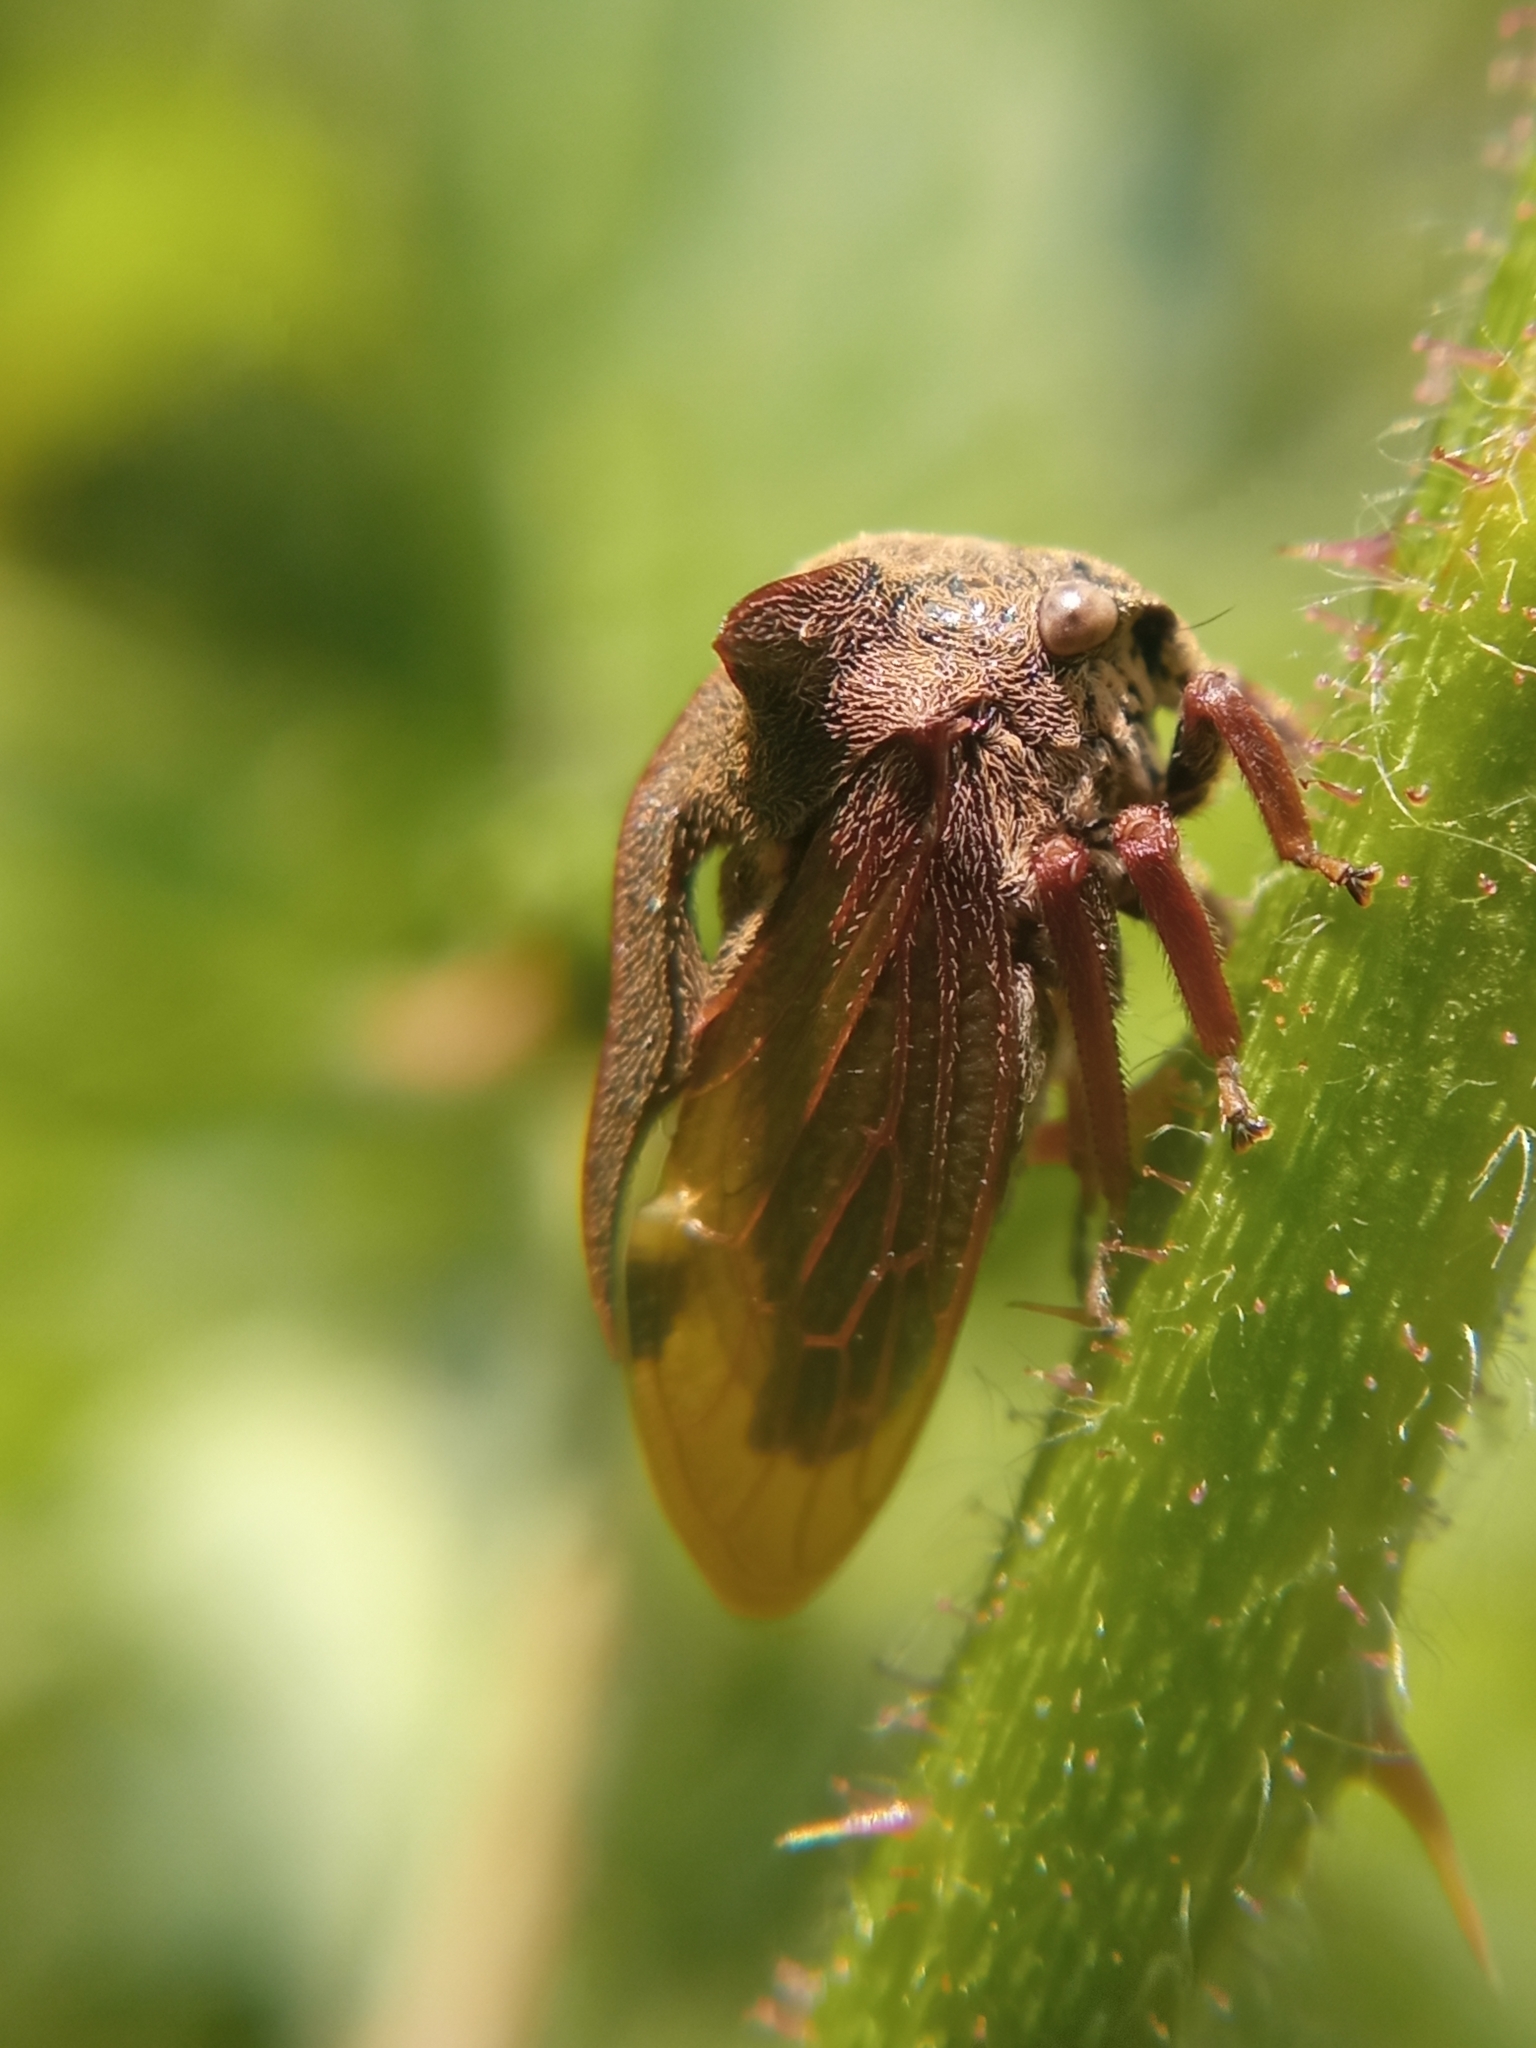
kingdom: Animalia
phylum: Arthropoda
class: Insecta
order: Hemiptera
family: Membracidae
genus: Centrotus
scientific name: Centrotus cornuta
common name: Treehopper
